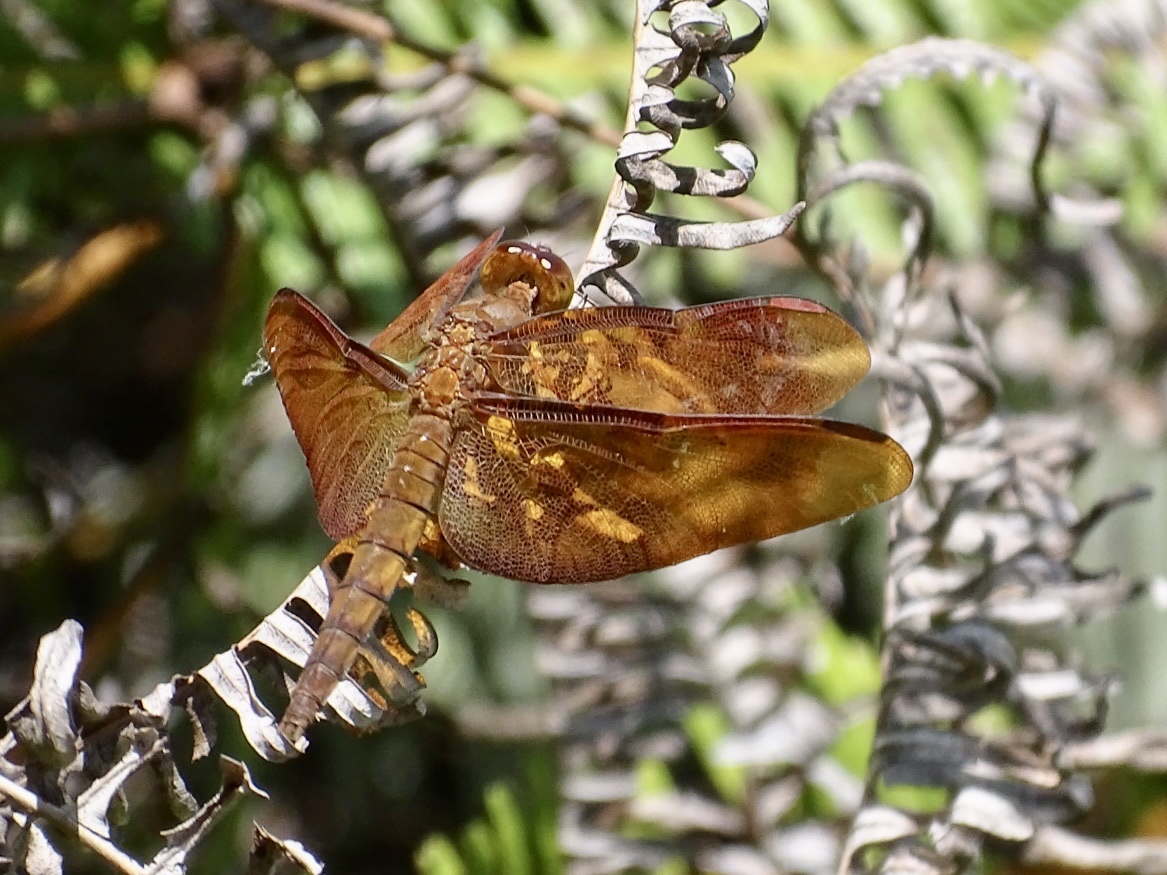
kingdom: Animalia
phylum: Arthropoda
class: Insecta
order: Odonata
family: Libellulidae
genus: Neurothemis
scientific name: Neurothemis fulvia
